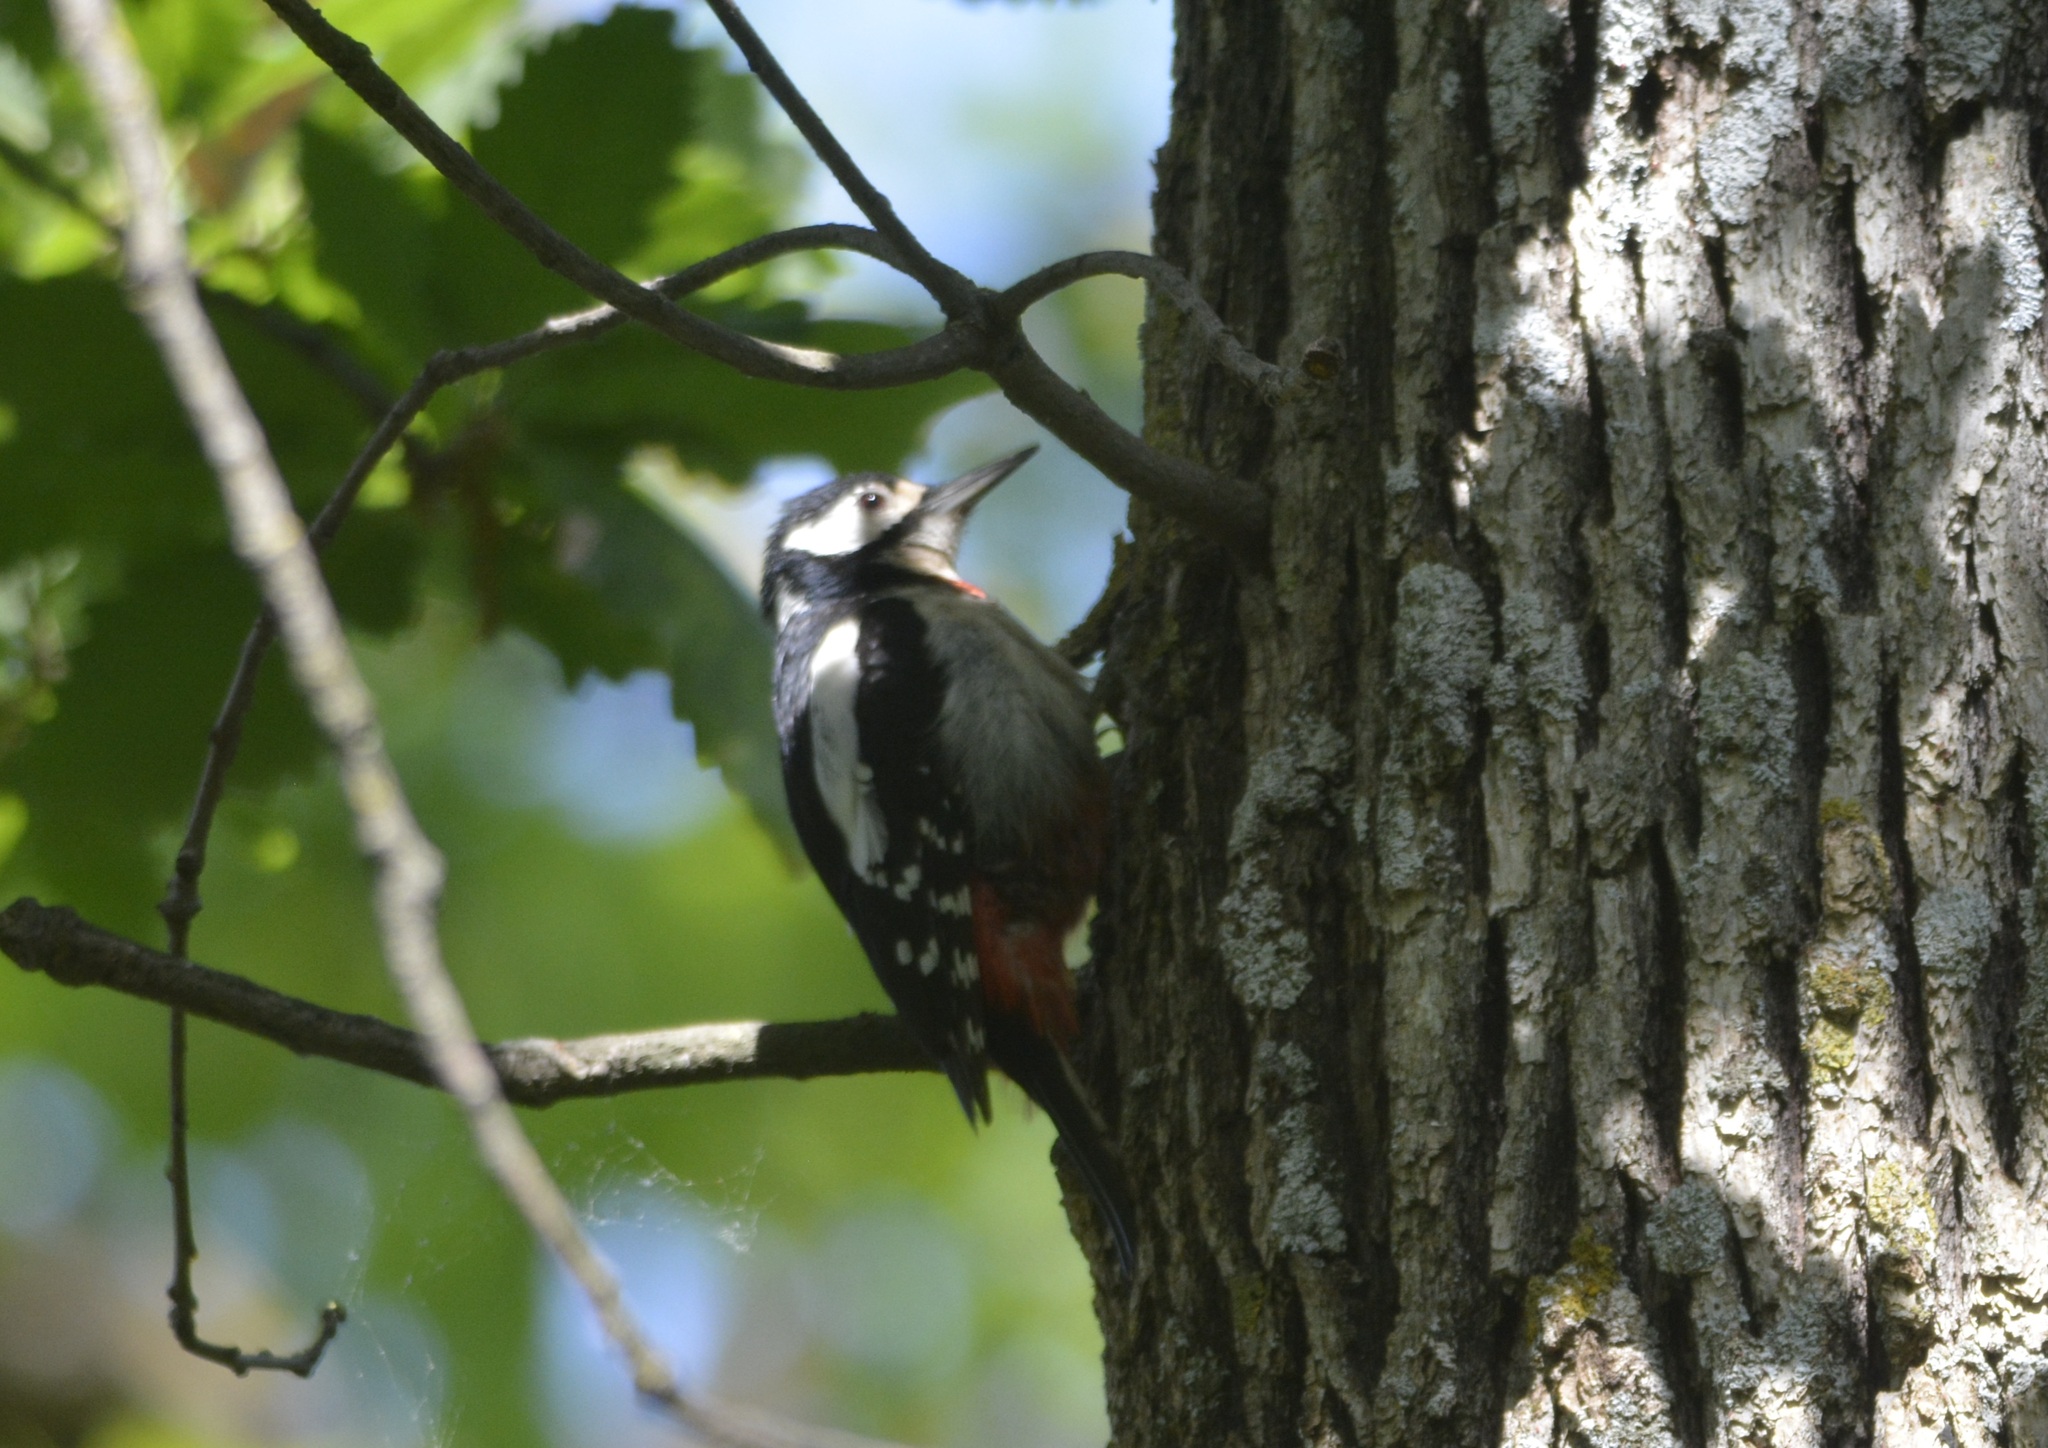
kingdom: Animalia
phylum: Chordata
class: Aves
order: Piciformes
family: Picidae
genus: Dendrocopos
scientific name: Dendrocopos major
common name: Great spotted woodpecker
